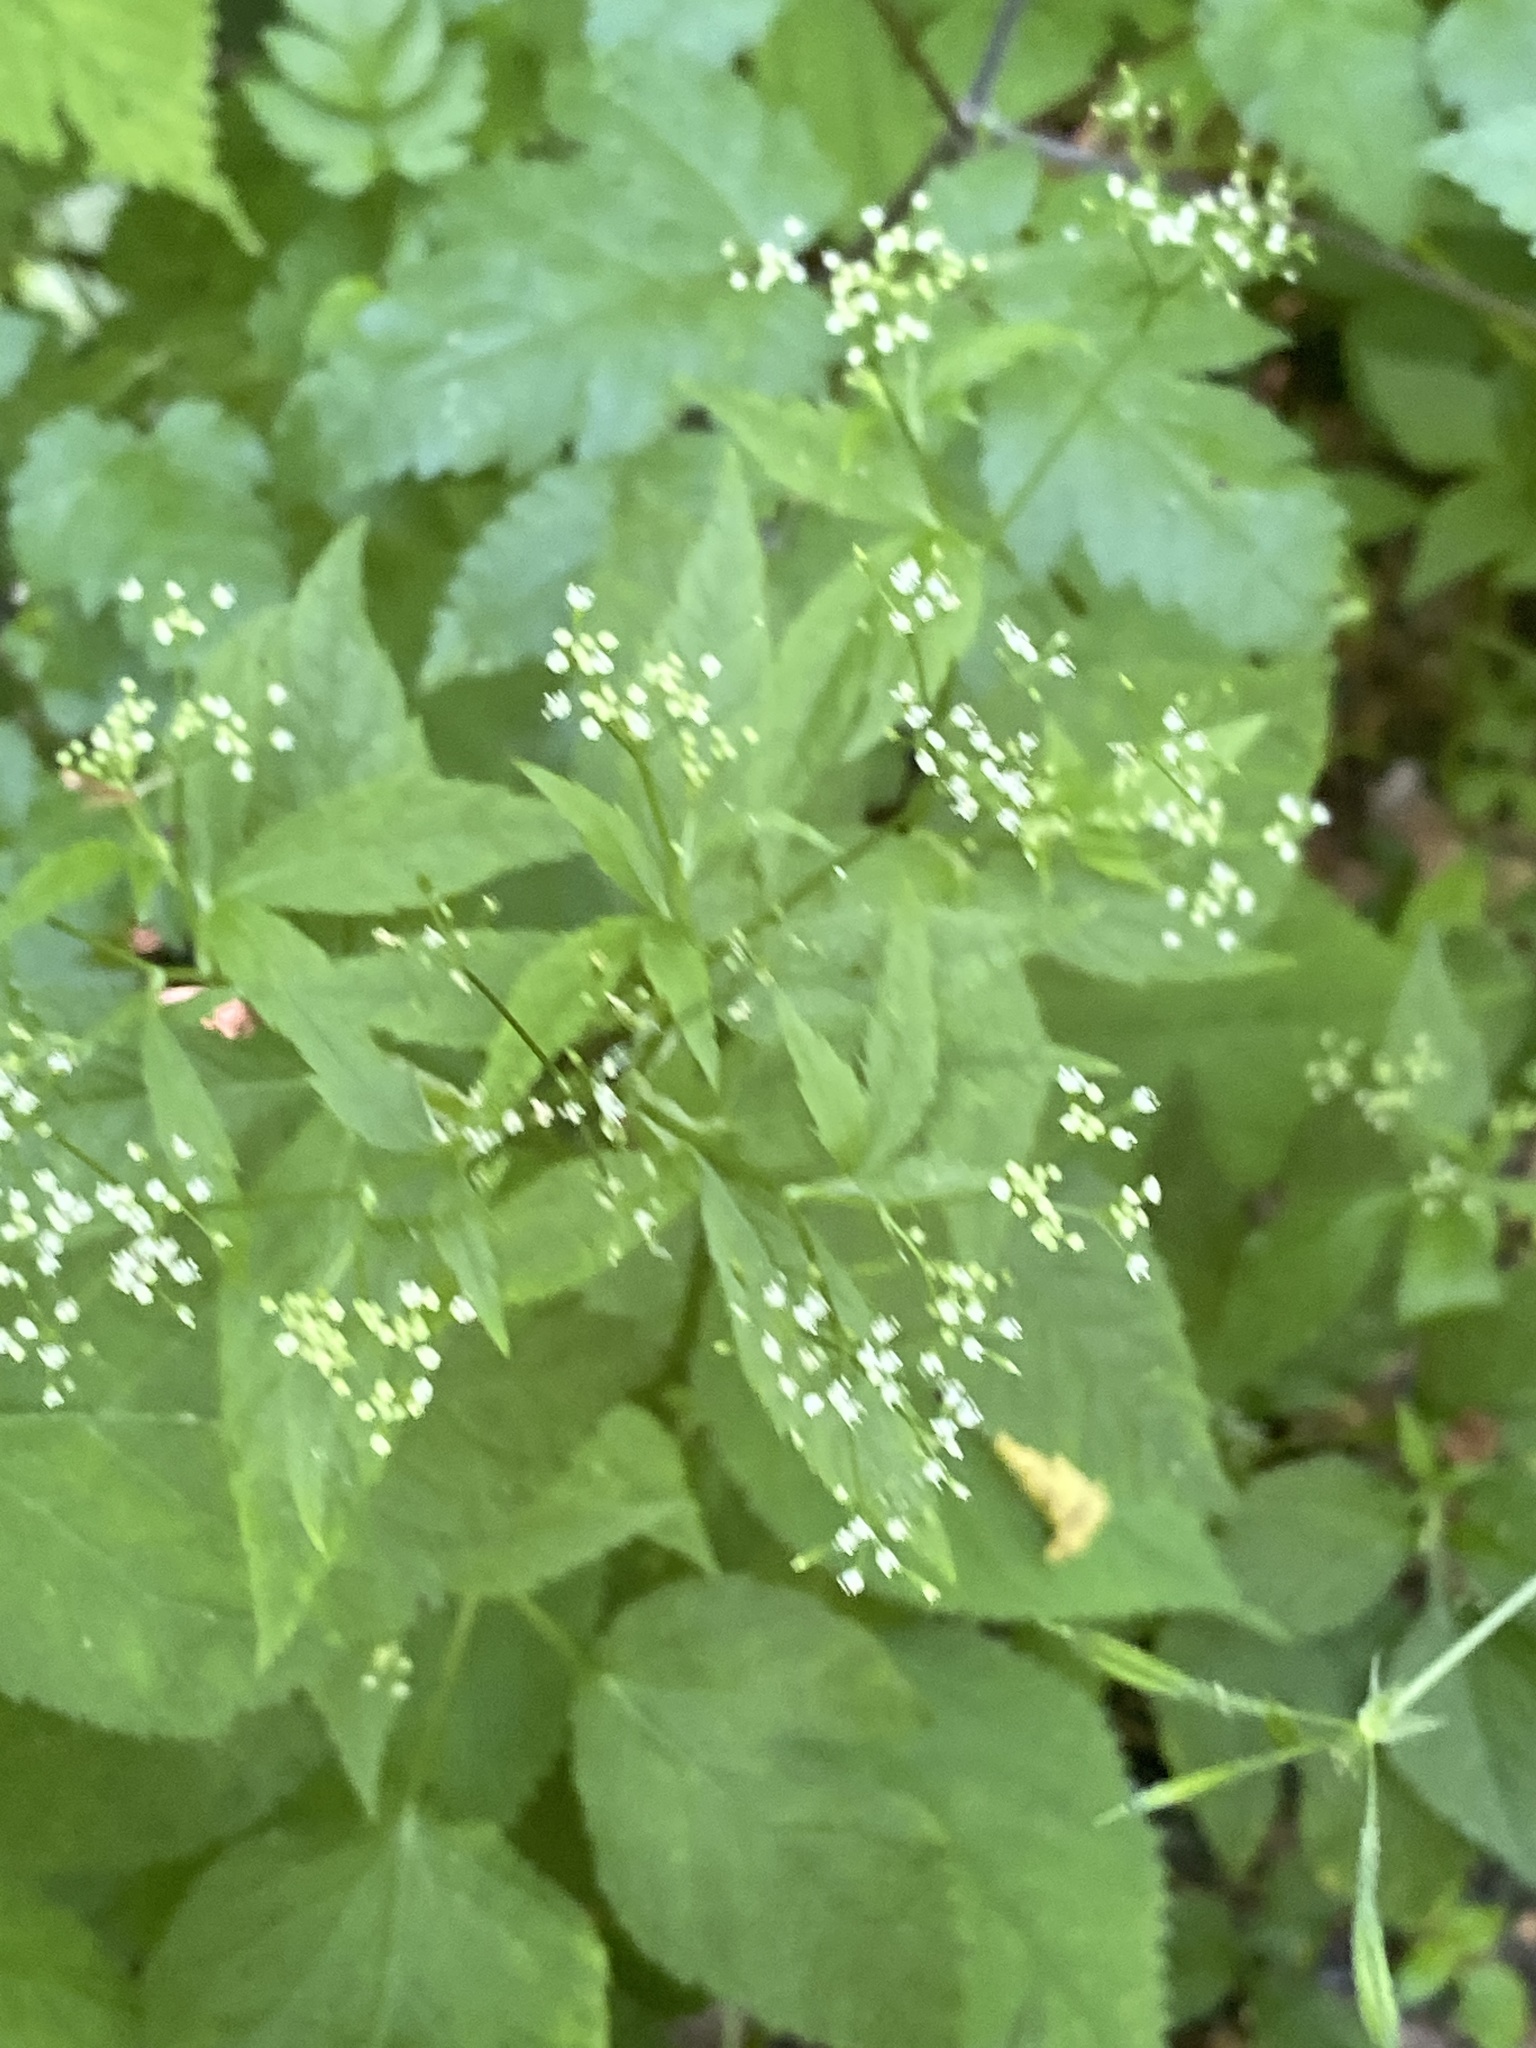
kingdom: Plantae
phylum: Tracheophyta
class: Magnoliopsida
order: Apiales
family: Apiaceae
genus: Cryptotaenia
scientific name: Cryptotaenia canadensis
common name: Honewort
